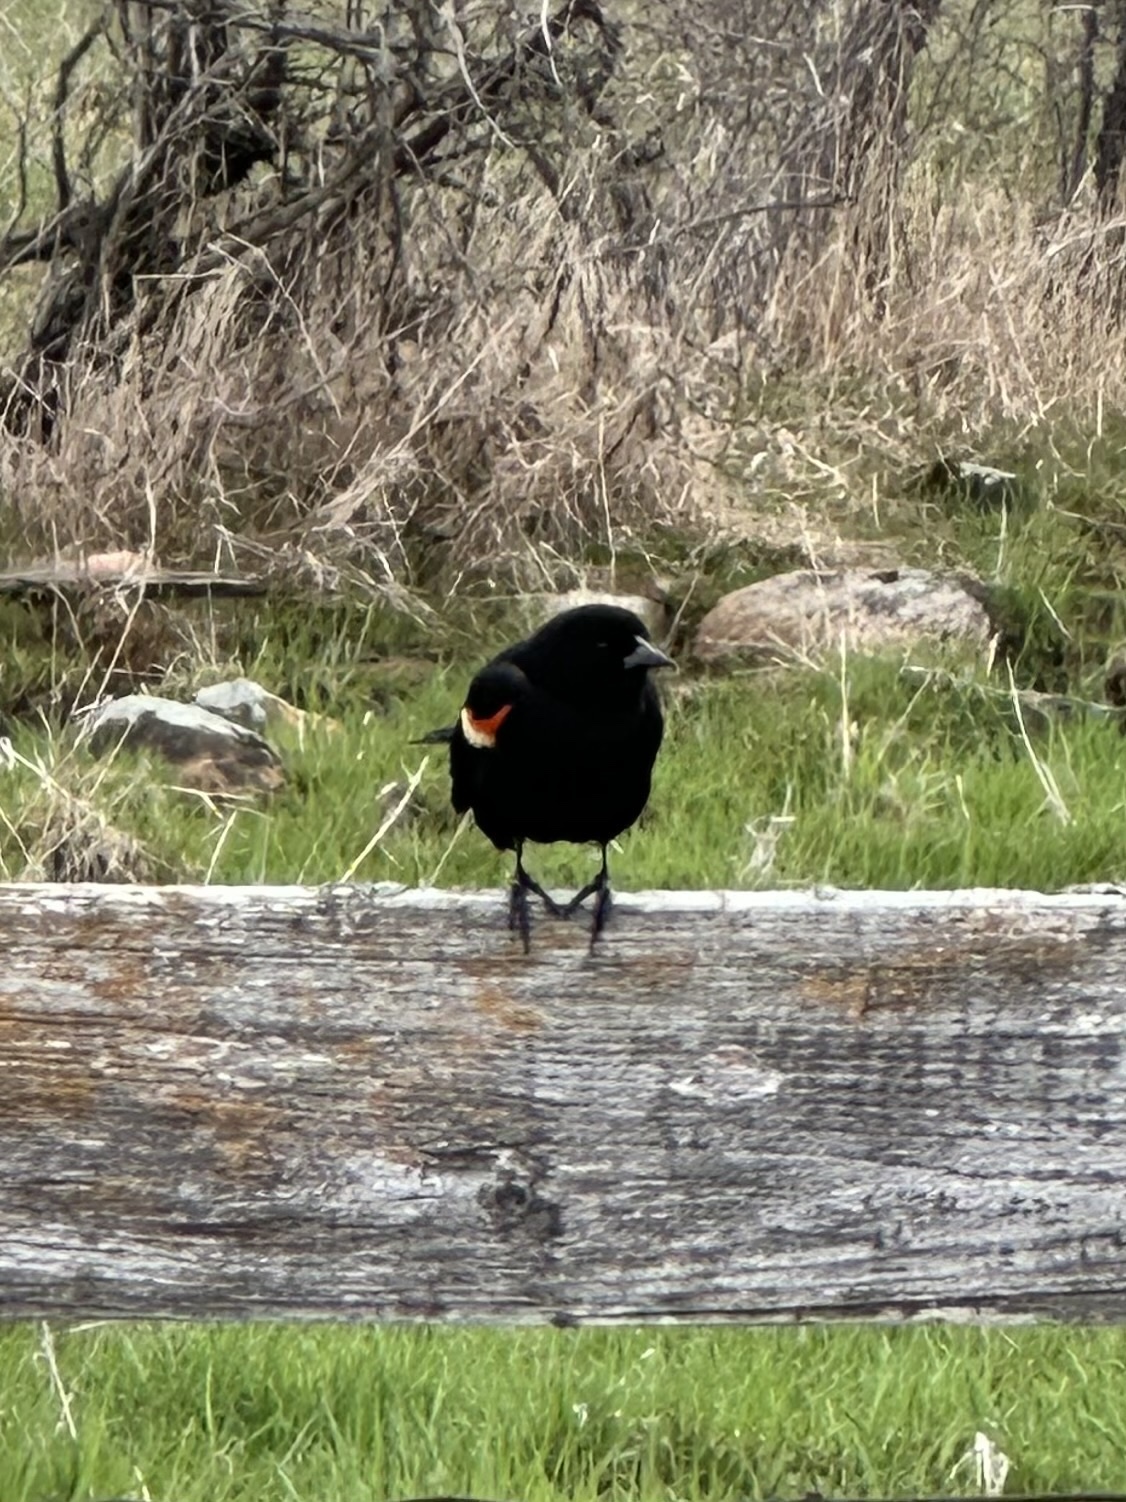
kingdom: Animalia
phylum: Chordata
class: Aves
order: Passeriformes
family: Icteridae
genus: Agelaius
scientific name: Agelaius phoeniceus
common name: Red-winged blackbird
